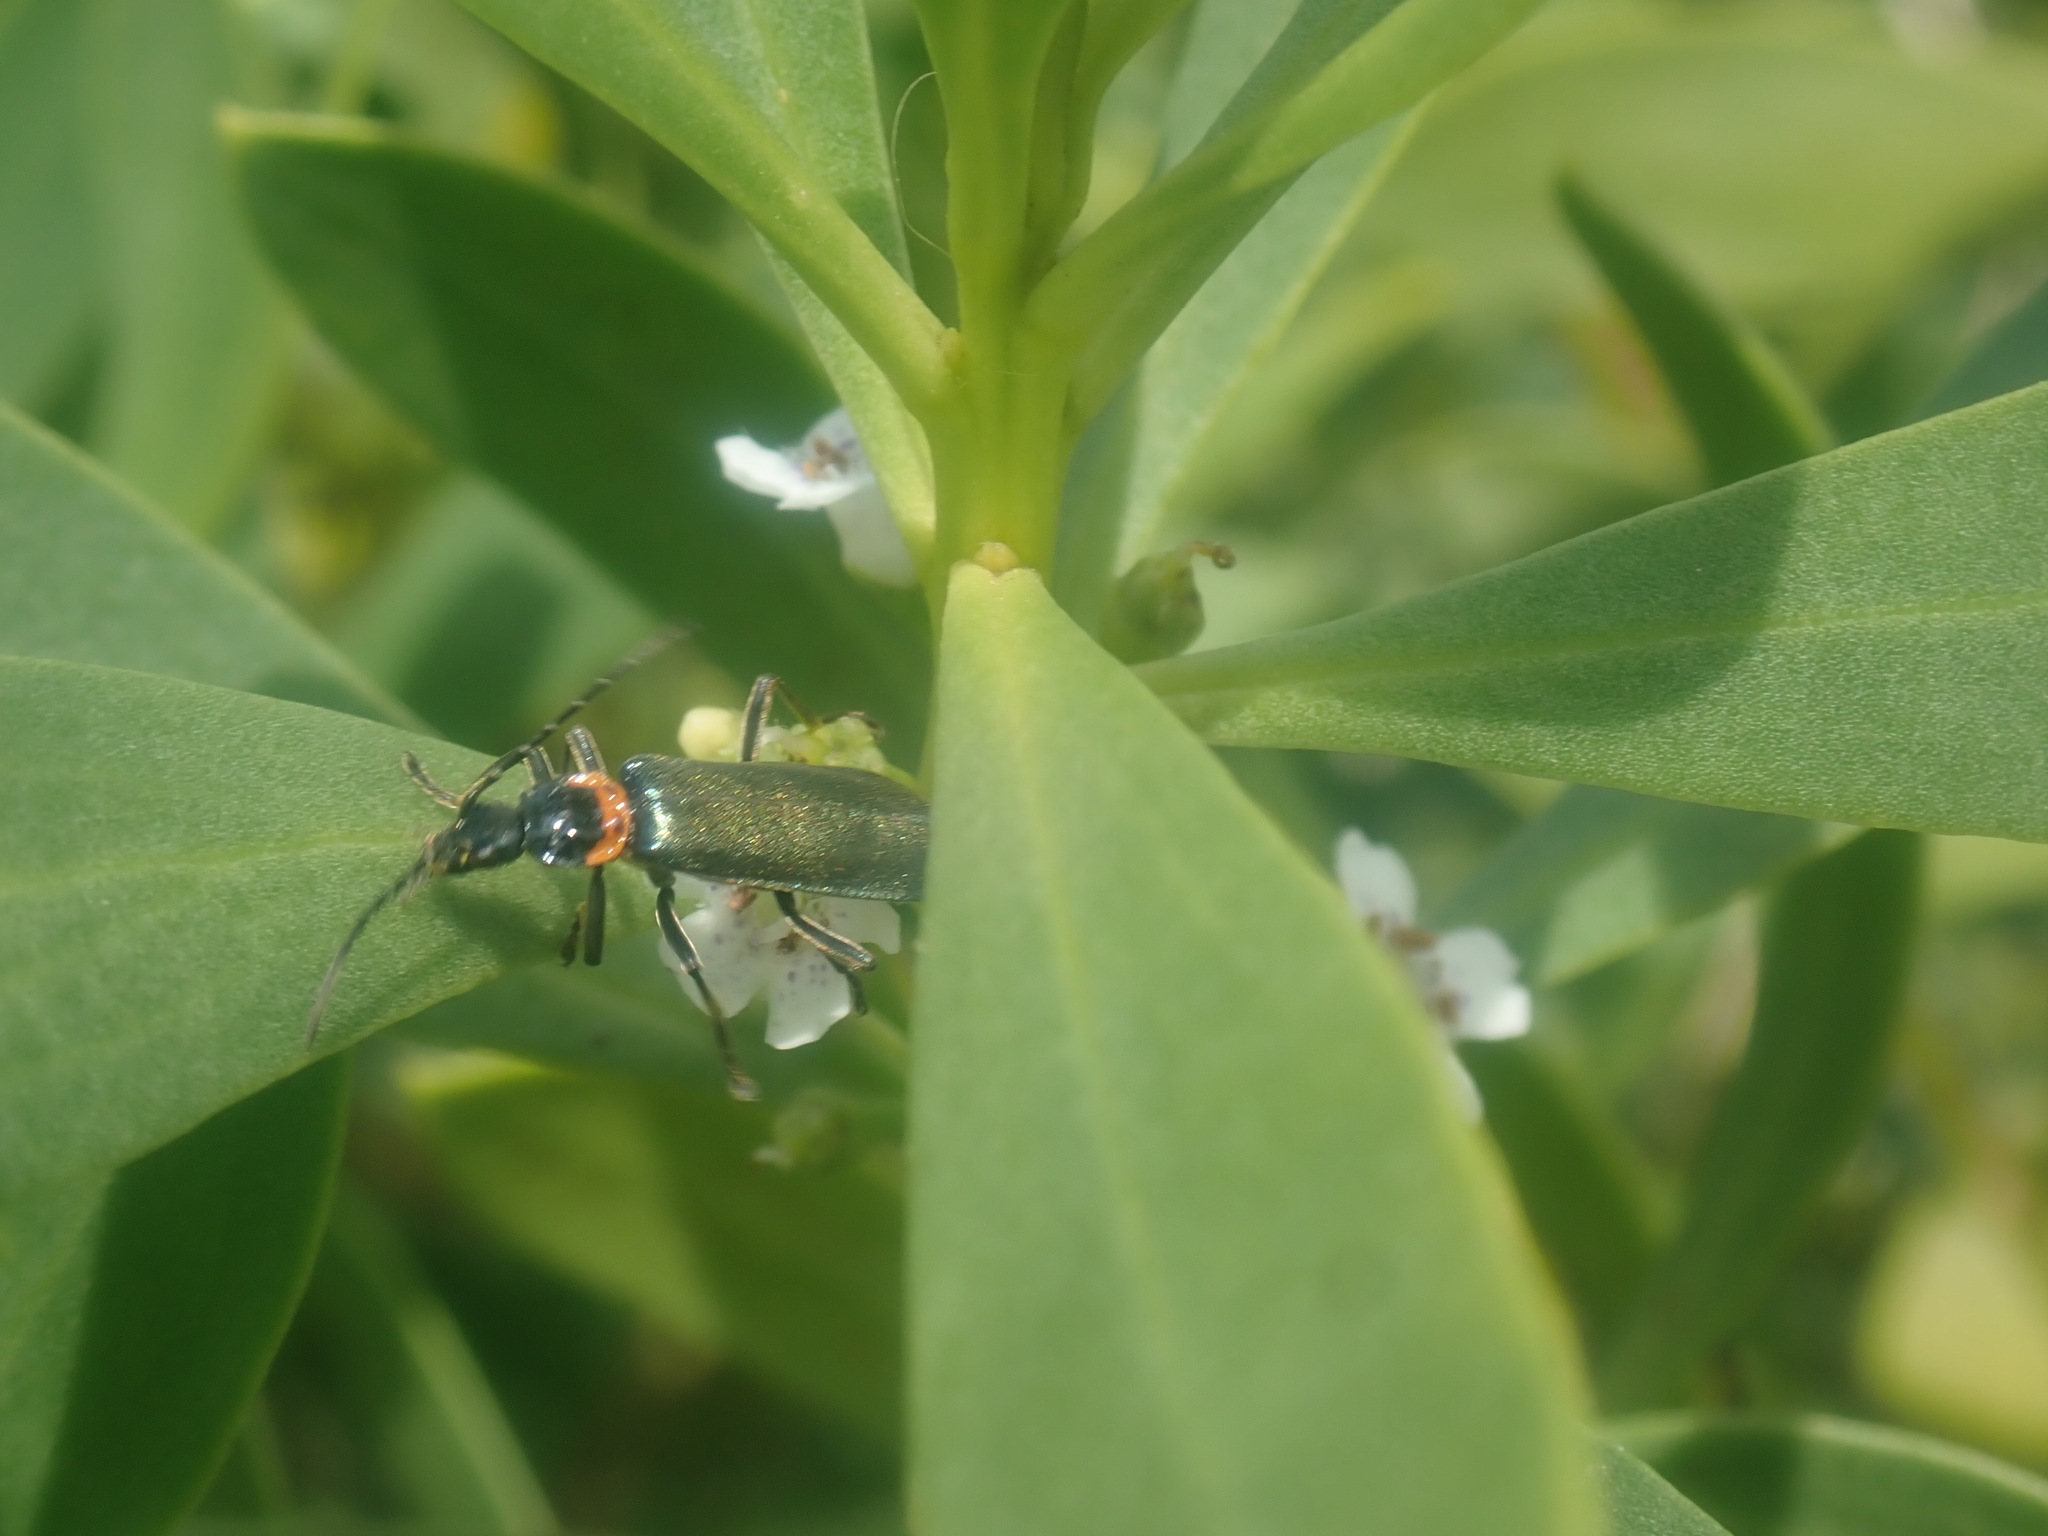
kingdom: Animalia
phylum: Arthropoda
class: Insecta
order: Coleoptera
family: Cantharidae
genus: Chauliognathus
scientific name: Chauliognathus
